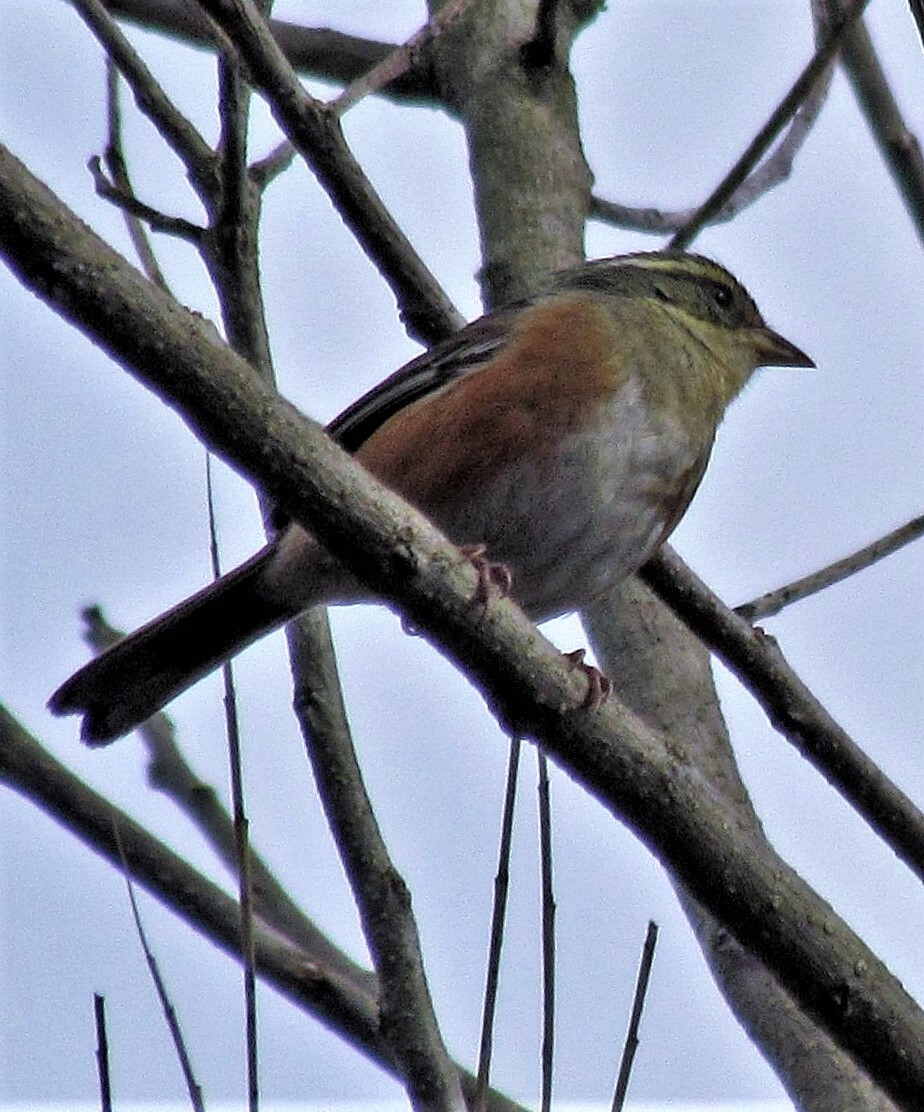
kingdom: Animalia
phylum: Chordata
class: Aves
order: Passeriformes
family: Thraupidae
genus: Microspingus
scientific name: Microspingus cabanisi
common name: Gray-throated warbling-finch
